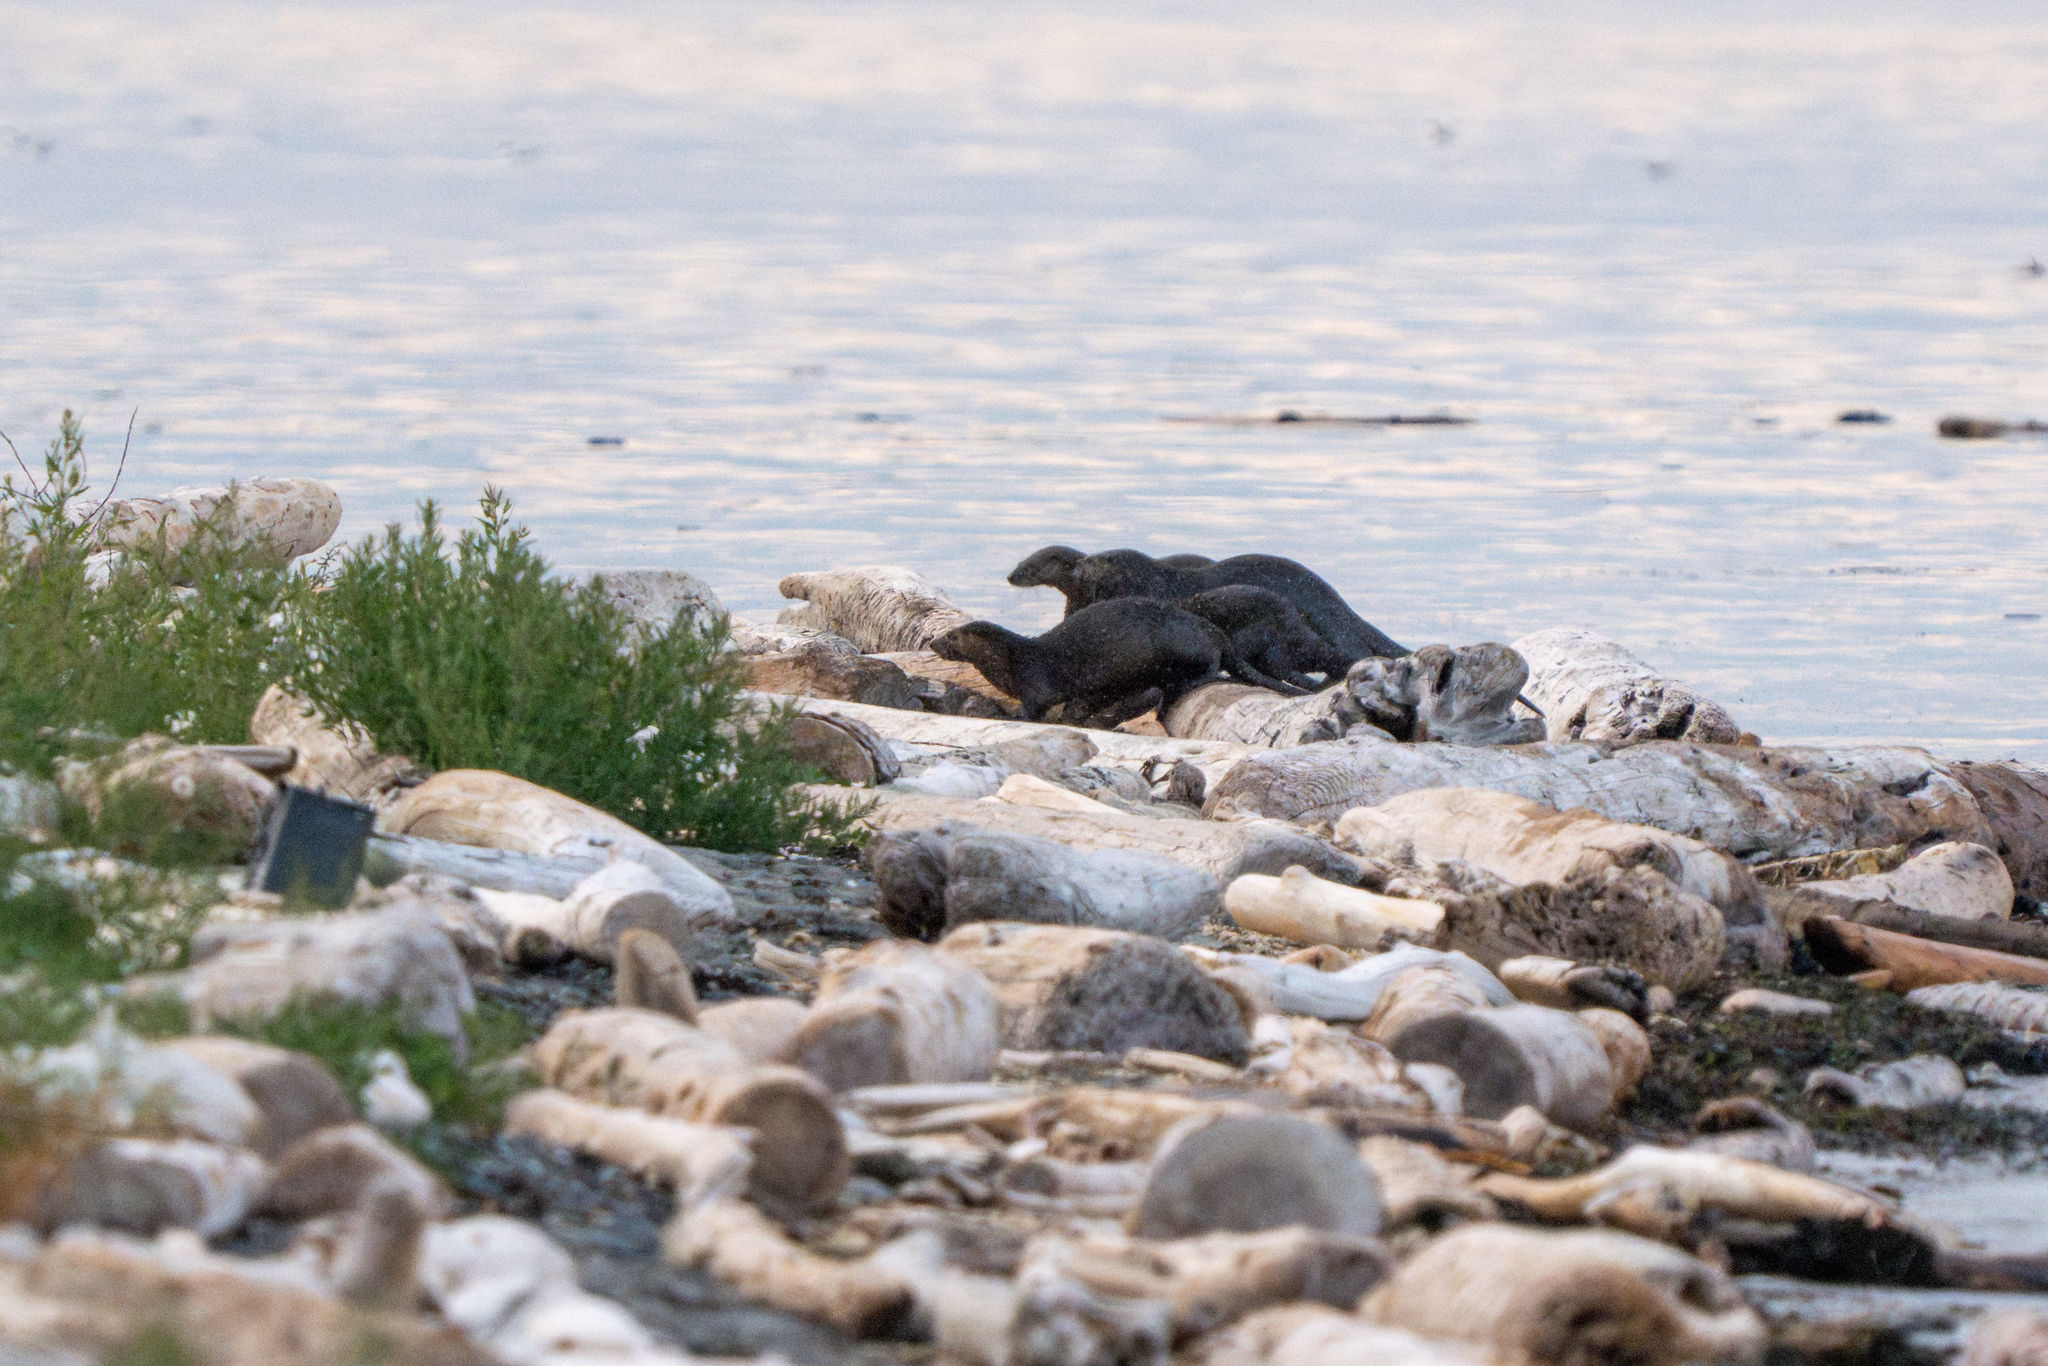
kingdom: Animalia
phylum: Chordata
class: Mammalia
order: Carnivora
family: Mustelidae
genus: Lontra
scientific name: Lontra canadensis
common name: North american river otter
